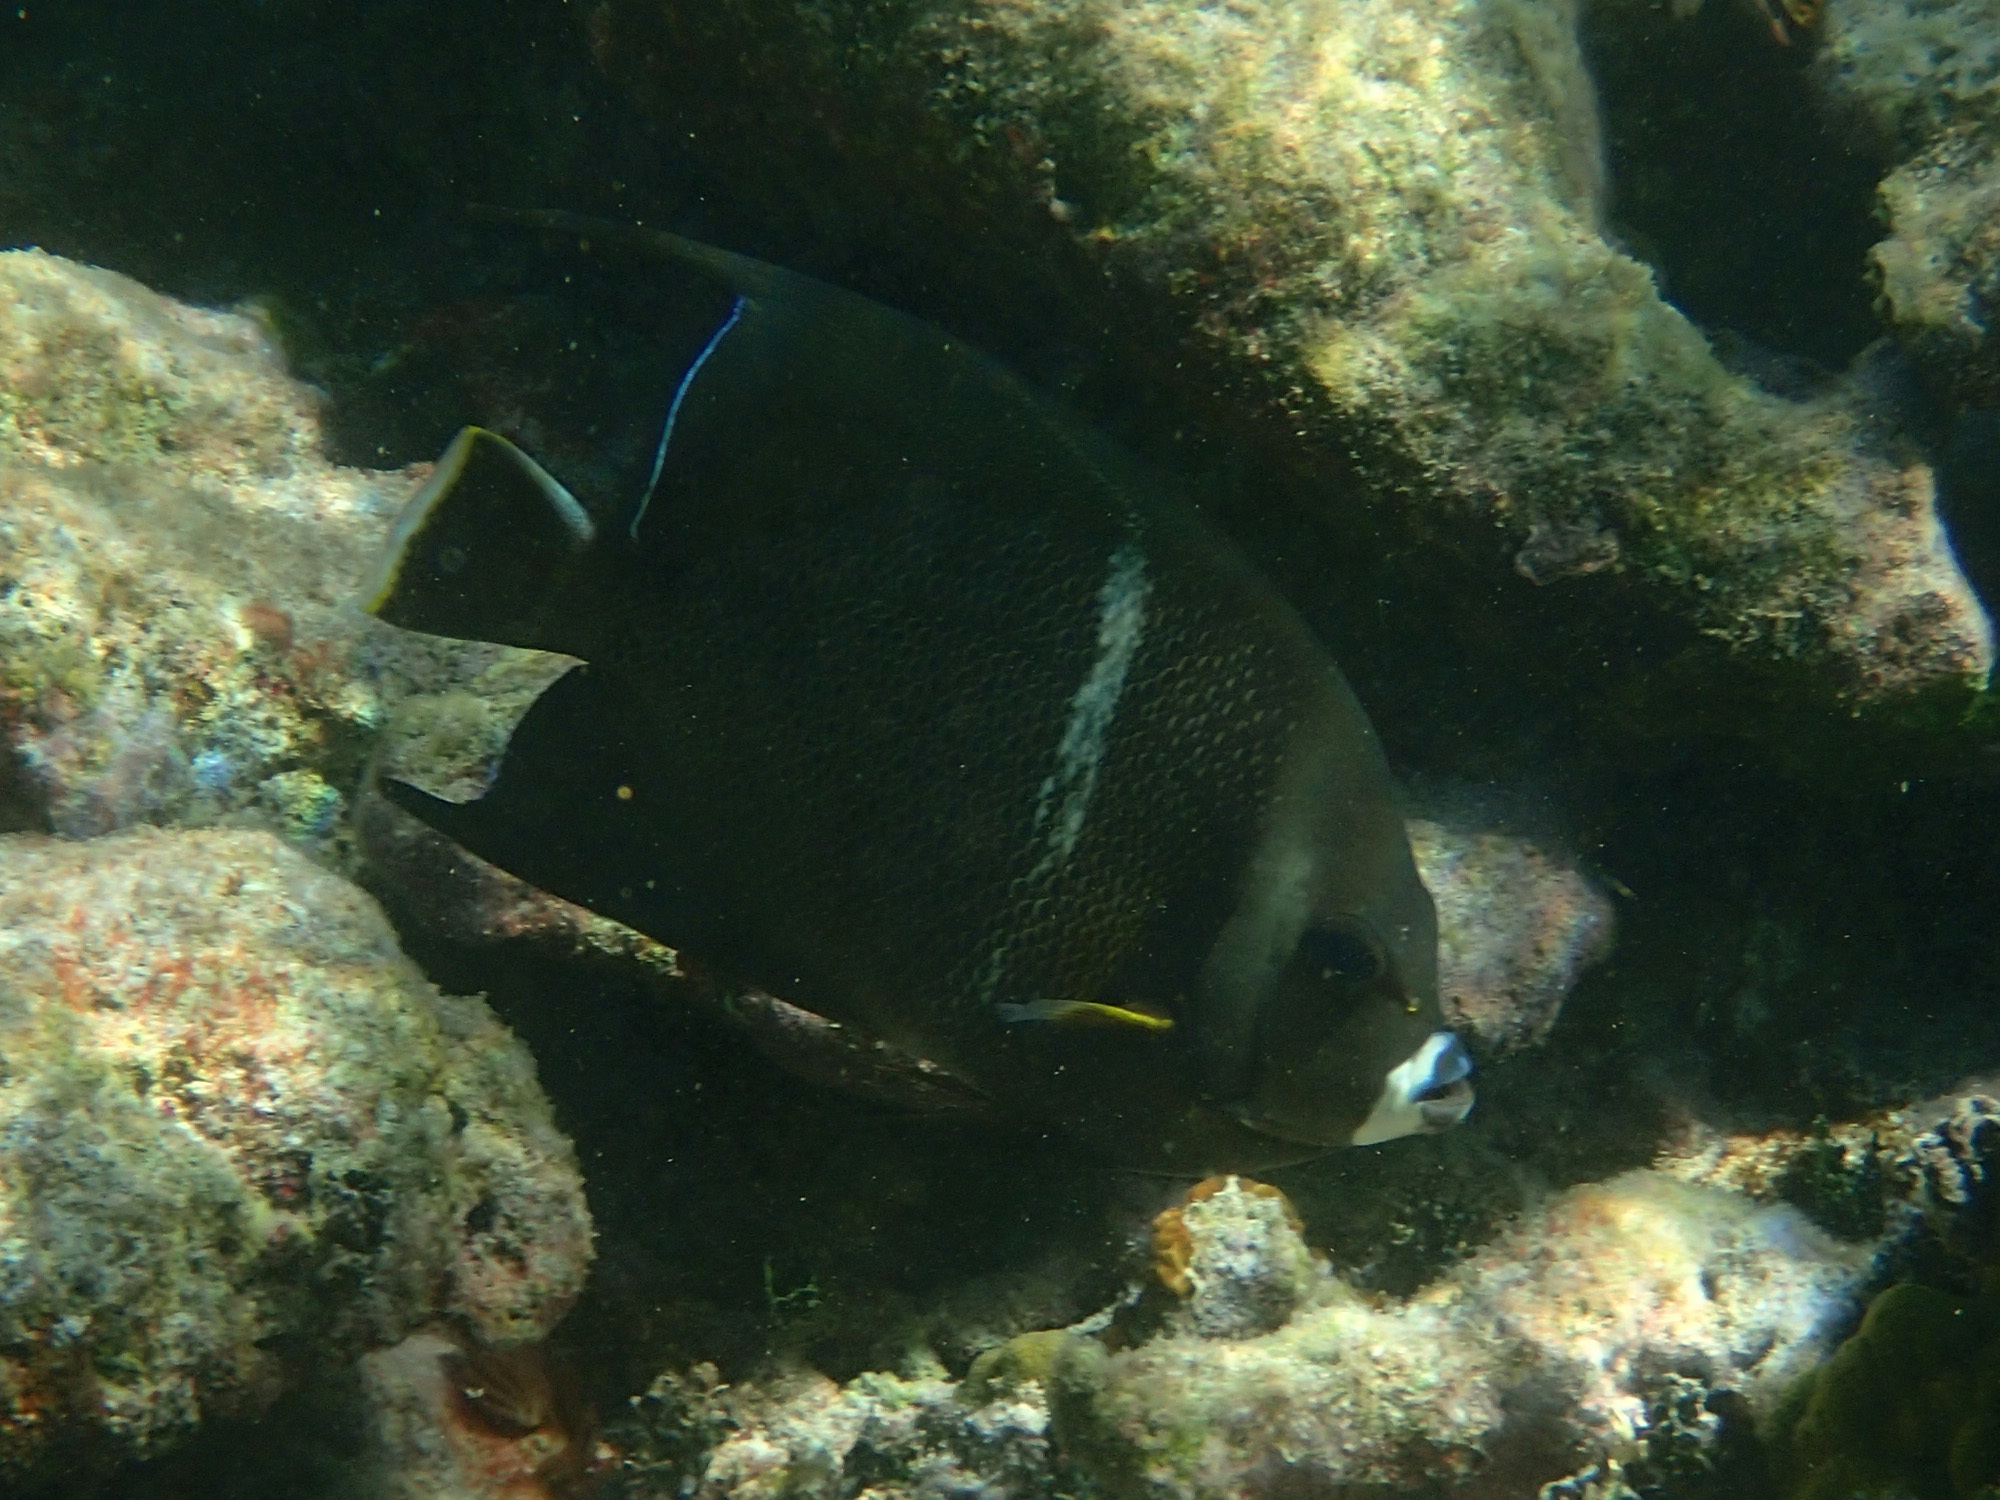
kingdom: Animalia
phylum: Chordata
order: Perciformes
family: Pomacanthidae
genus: Pomacanthus
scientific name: Pomacanthus arcuatus
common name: Gray angelfish
